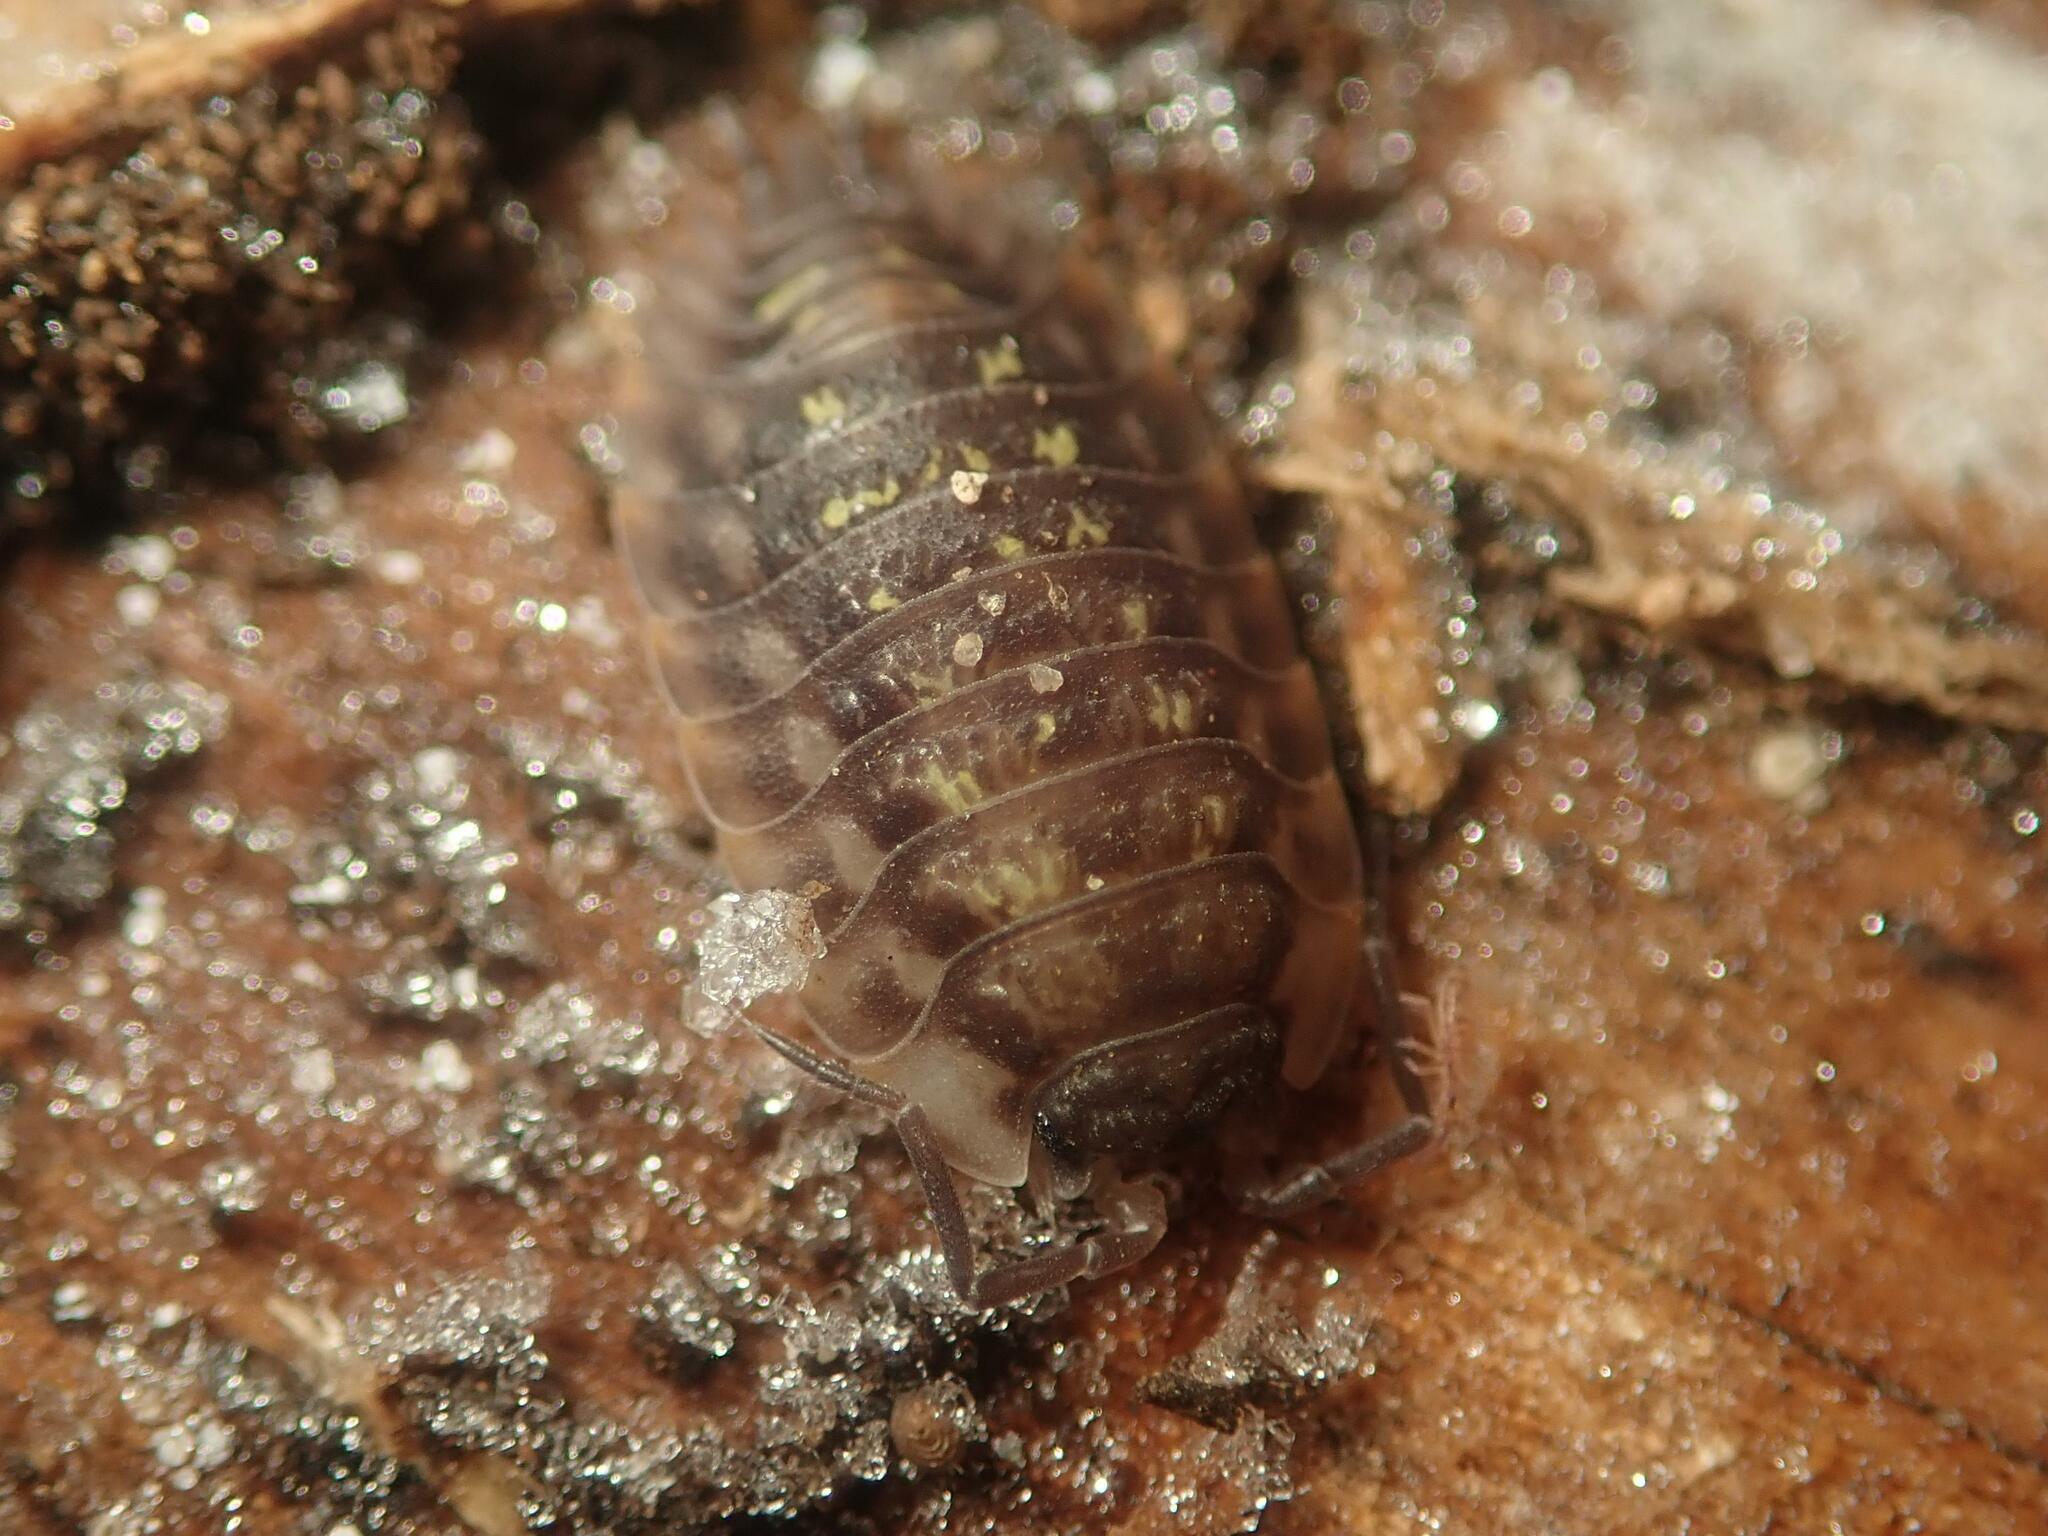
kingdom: Animalia
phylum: Arthropoda
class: Malacostraca
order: Isopoda
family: Oniscidae
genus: Oniscus
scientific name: Oniscus asellus
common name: Common shiny woodlouse
